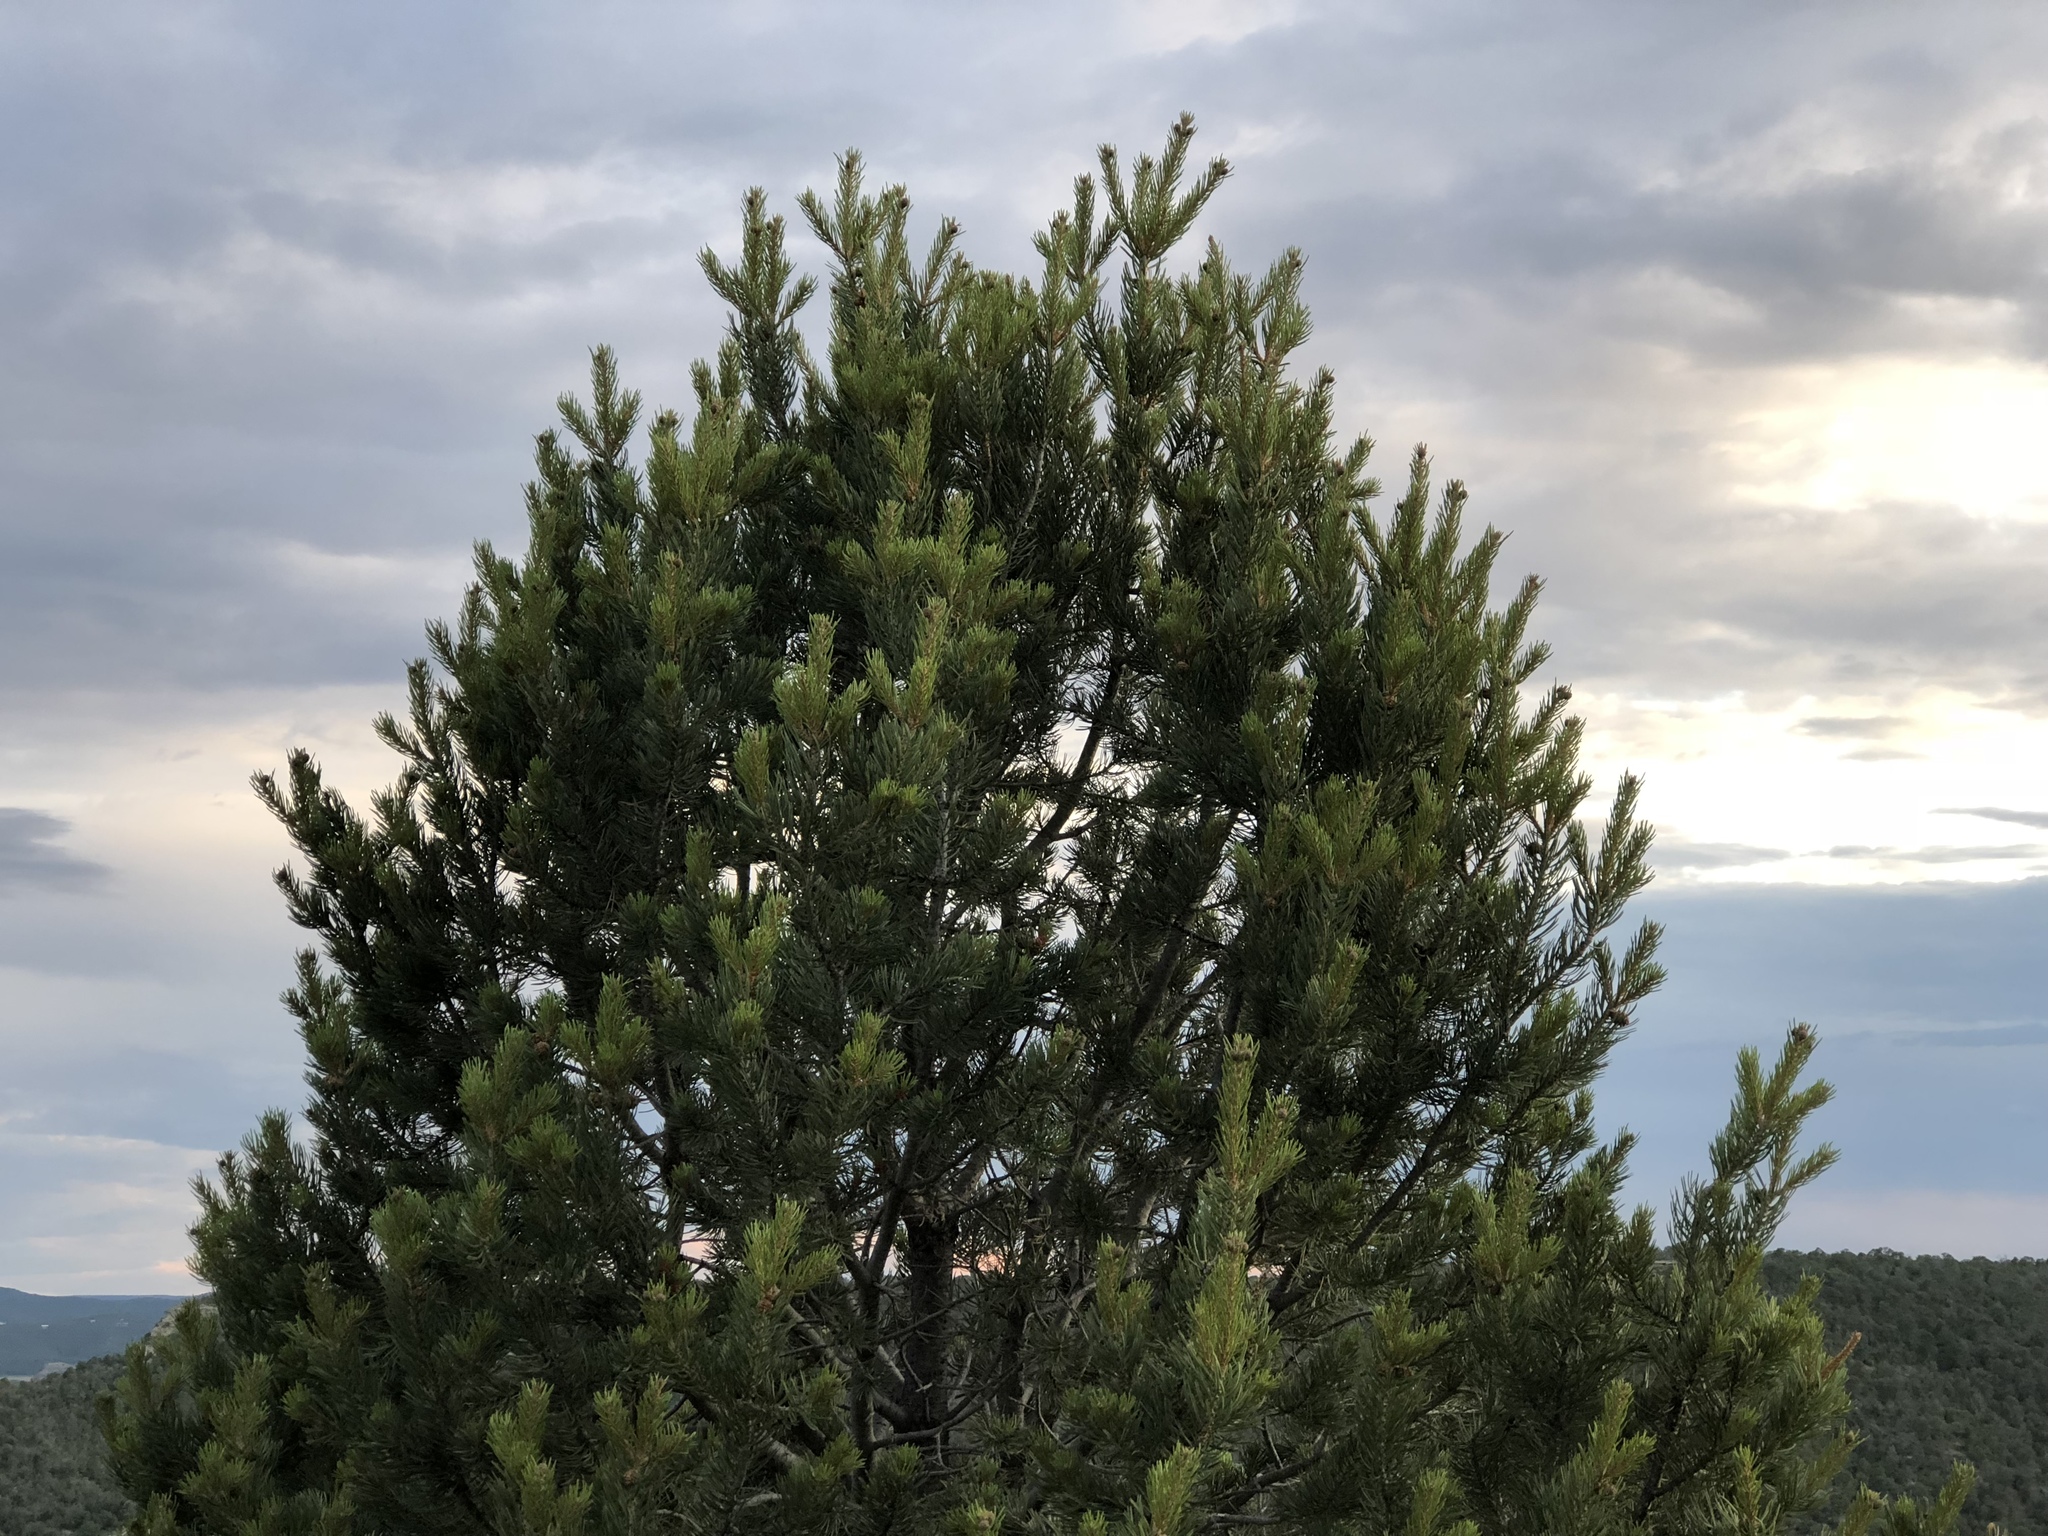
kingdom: Plantae
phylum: Tracheophyta
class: Pinopsida
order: Pinales
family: Pinaceae
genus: Pinus
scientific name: Pinus edulis
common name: Colorado pinyon
